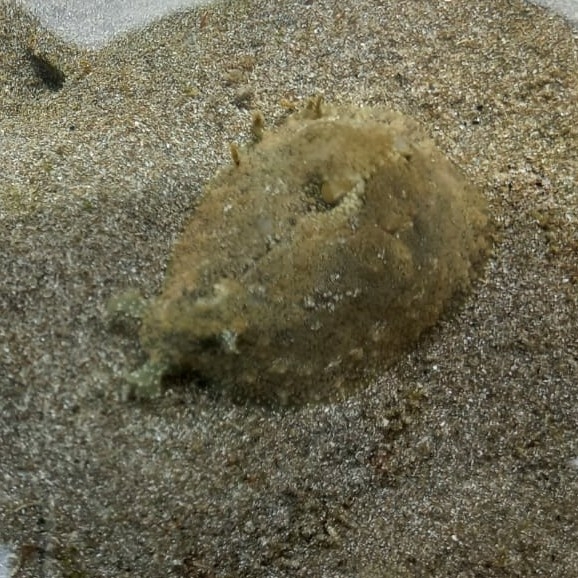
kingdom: Animalia
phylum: Mollusca
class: Gastropoda
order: Aplysiida
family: Aplysiidae
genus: Dolabrifera
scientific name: Dolabrifera nicaraguana
